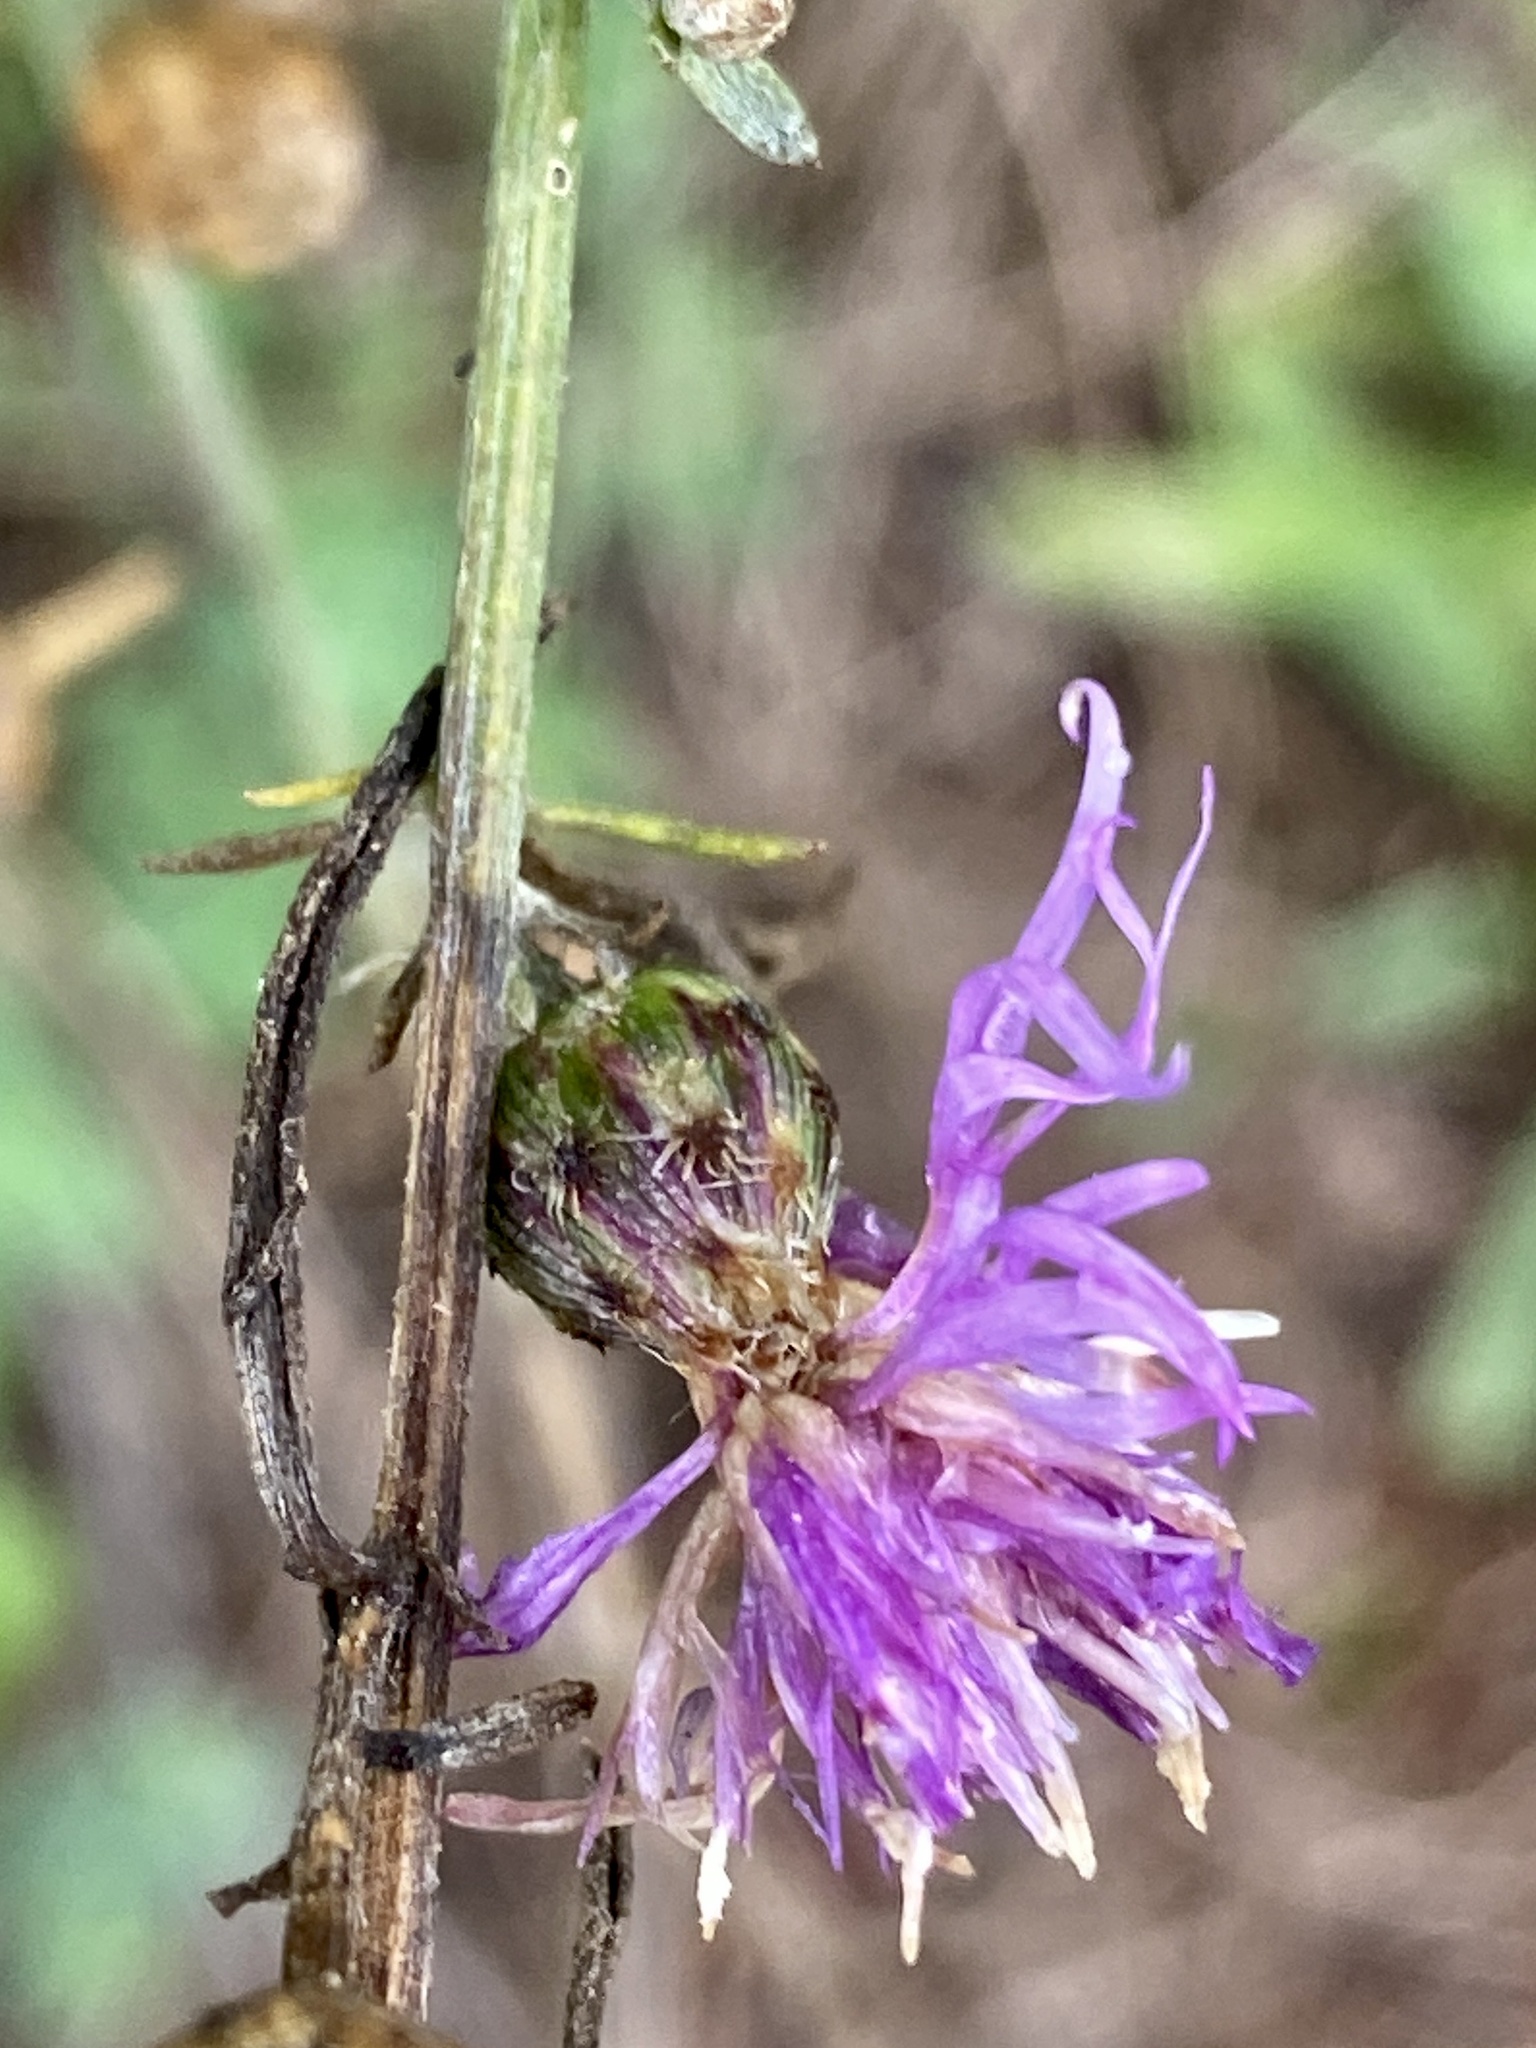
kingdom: Plantae
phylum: Tracheophyta
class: Magnoliopsida
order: Asterales
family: Asteraceae
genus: Centaurea
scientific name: Centaurea stoebe
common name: Spotted knapweed
